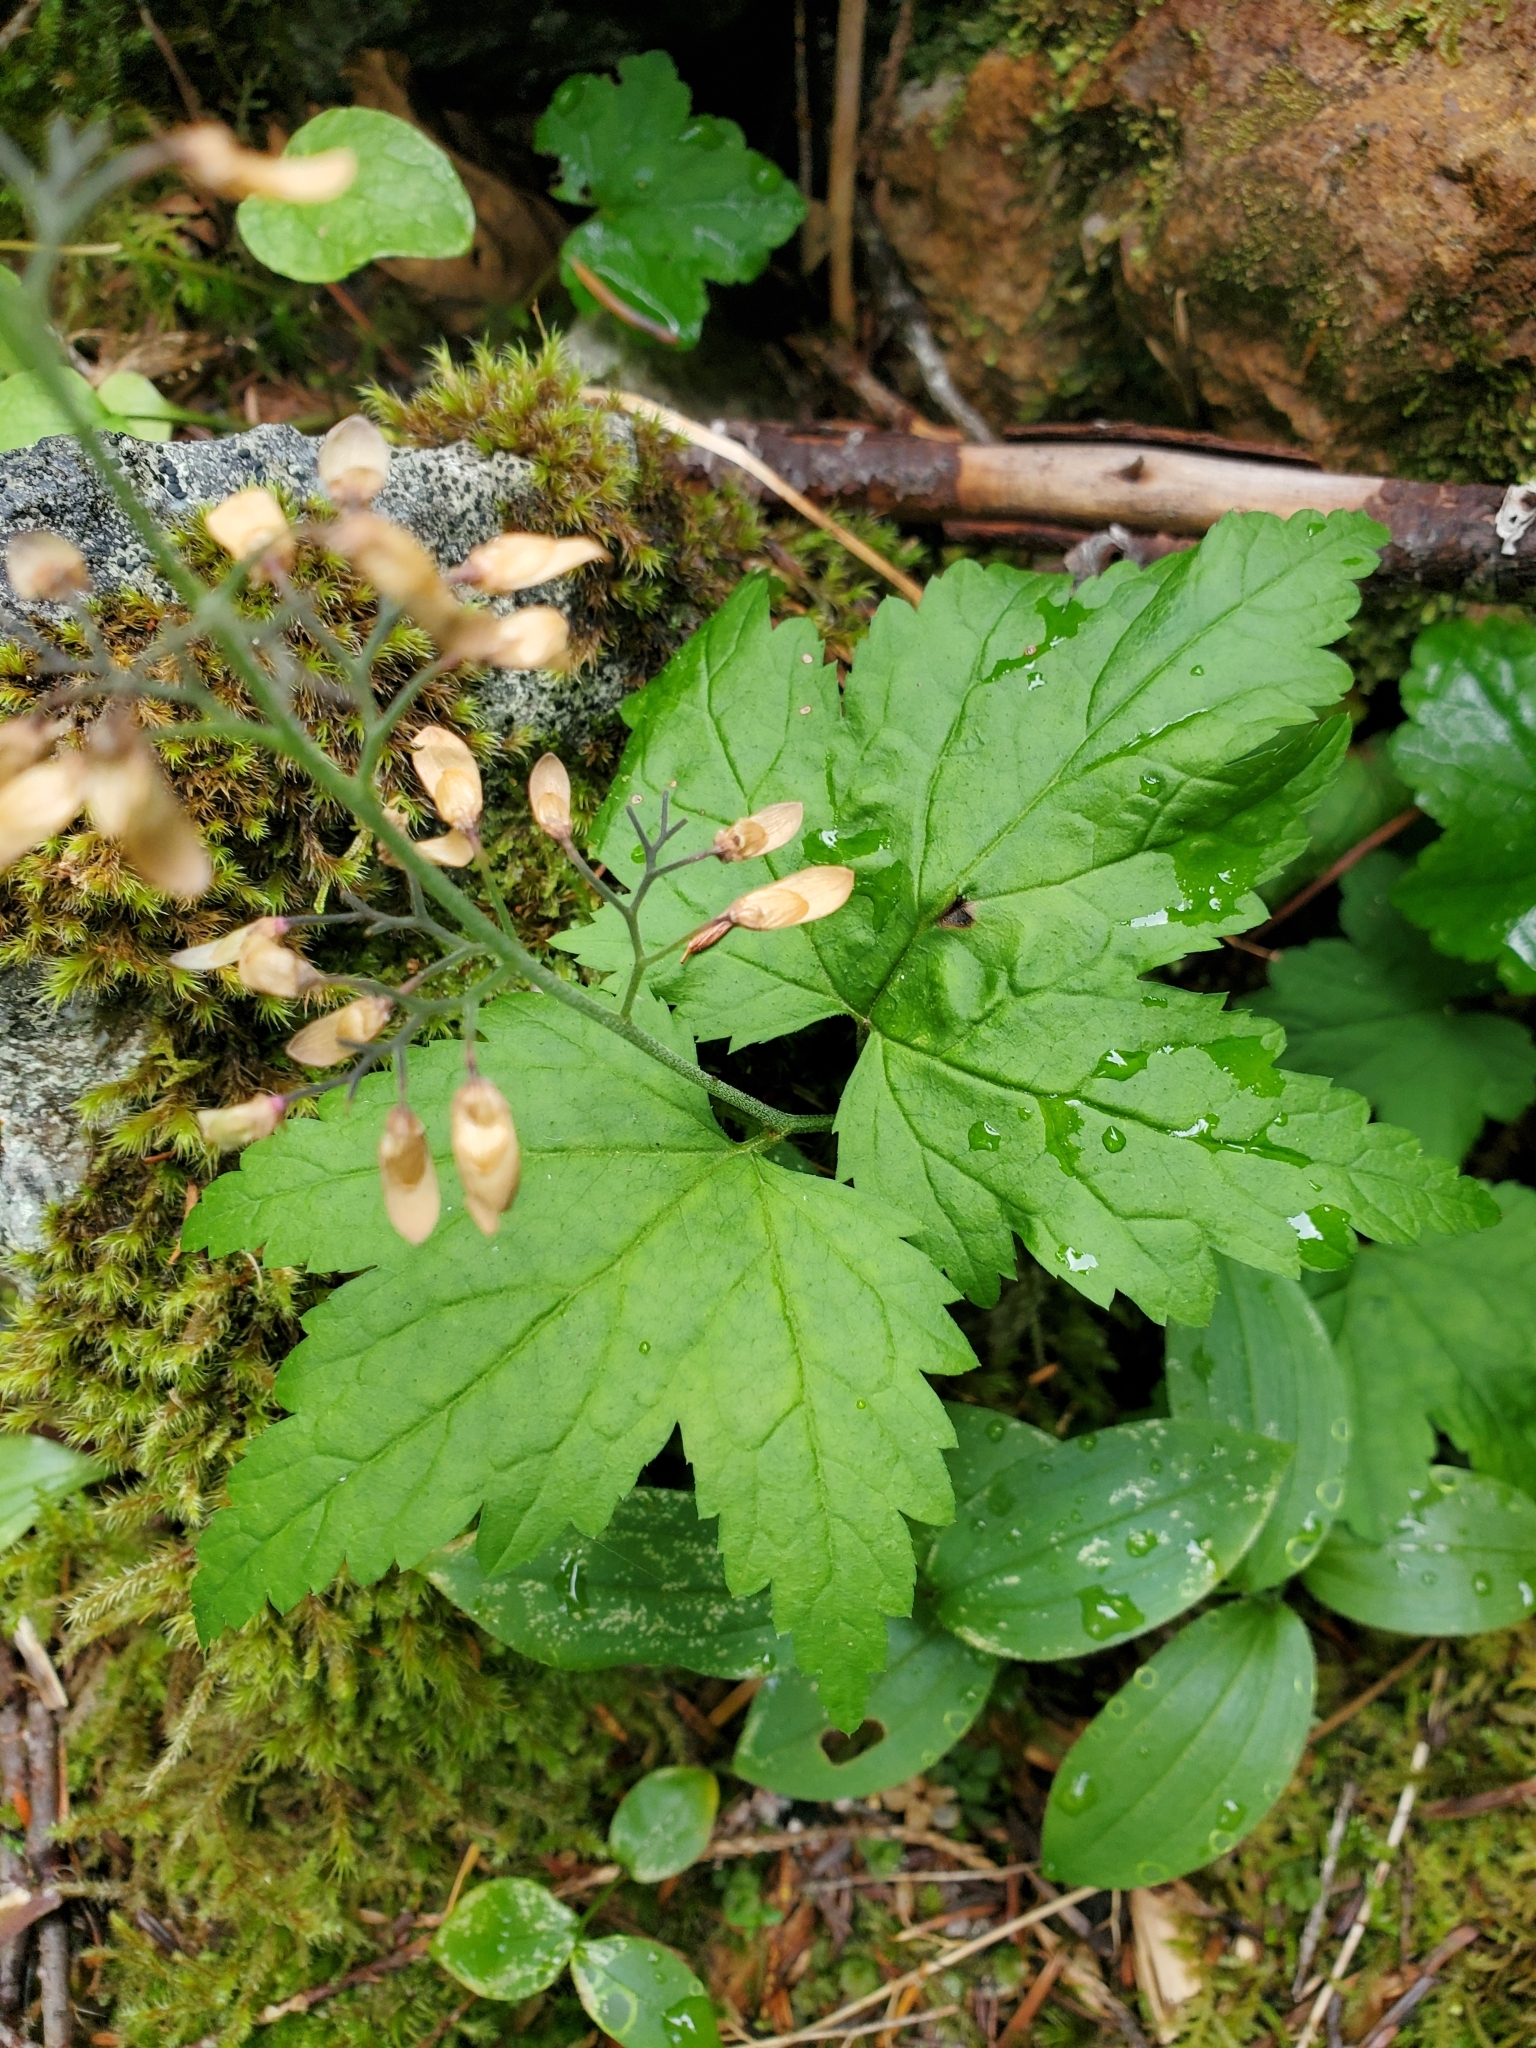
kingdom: Plantae
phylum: Tracheophyta
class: Magnoliopsida
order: Saxifragales
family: Saxifragaceae
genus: Tiarella
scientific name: Tiarella trifoliata
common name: Sugar-scoop
